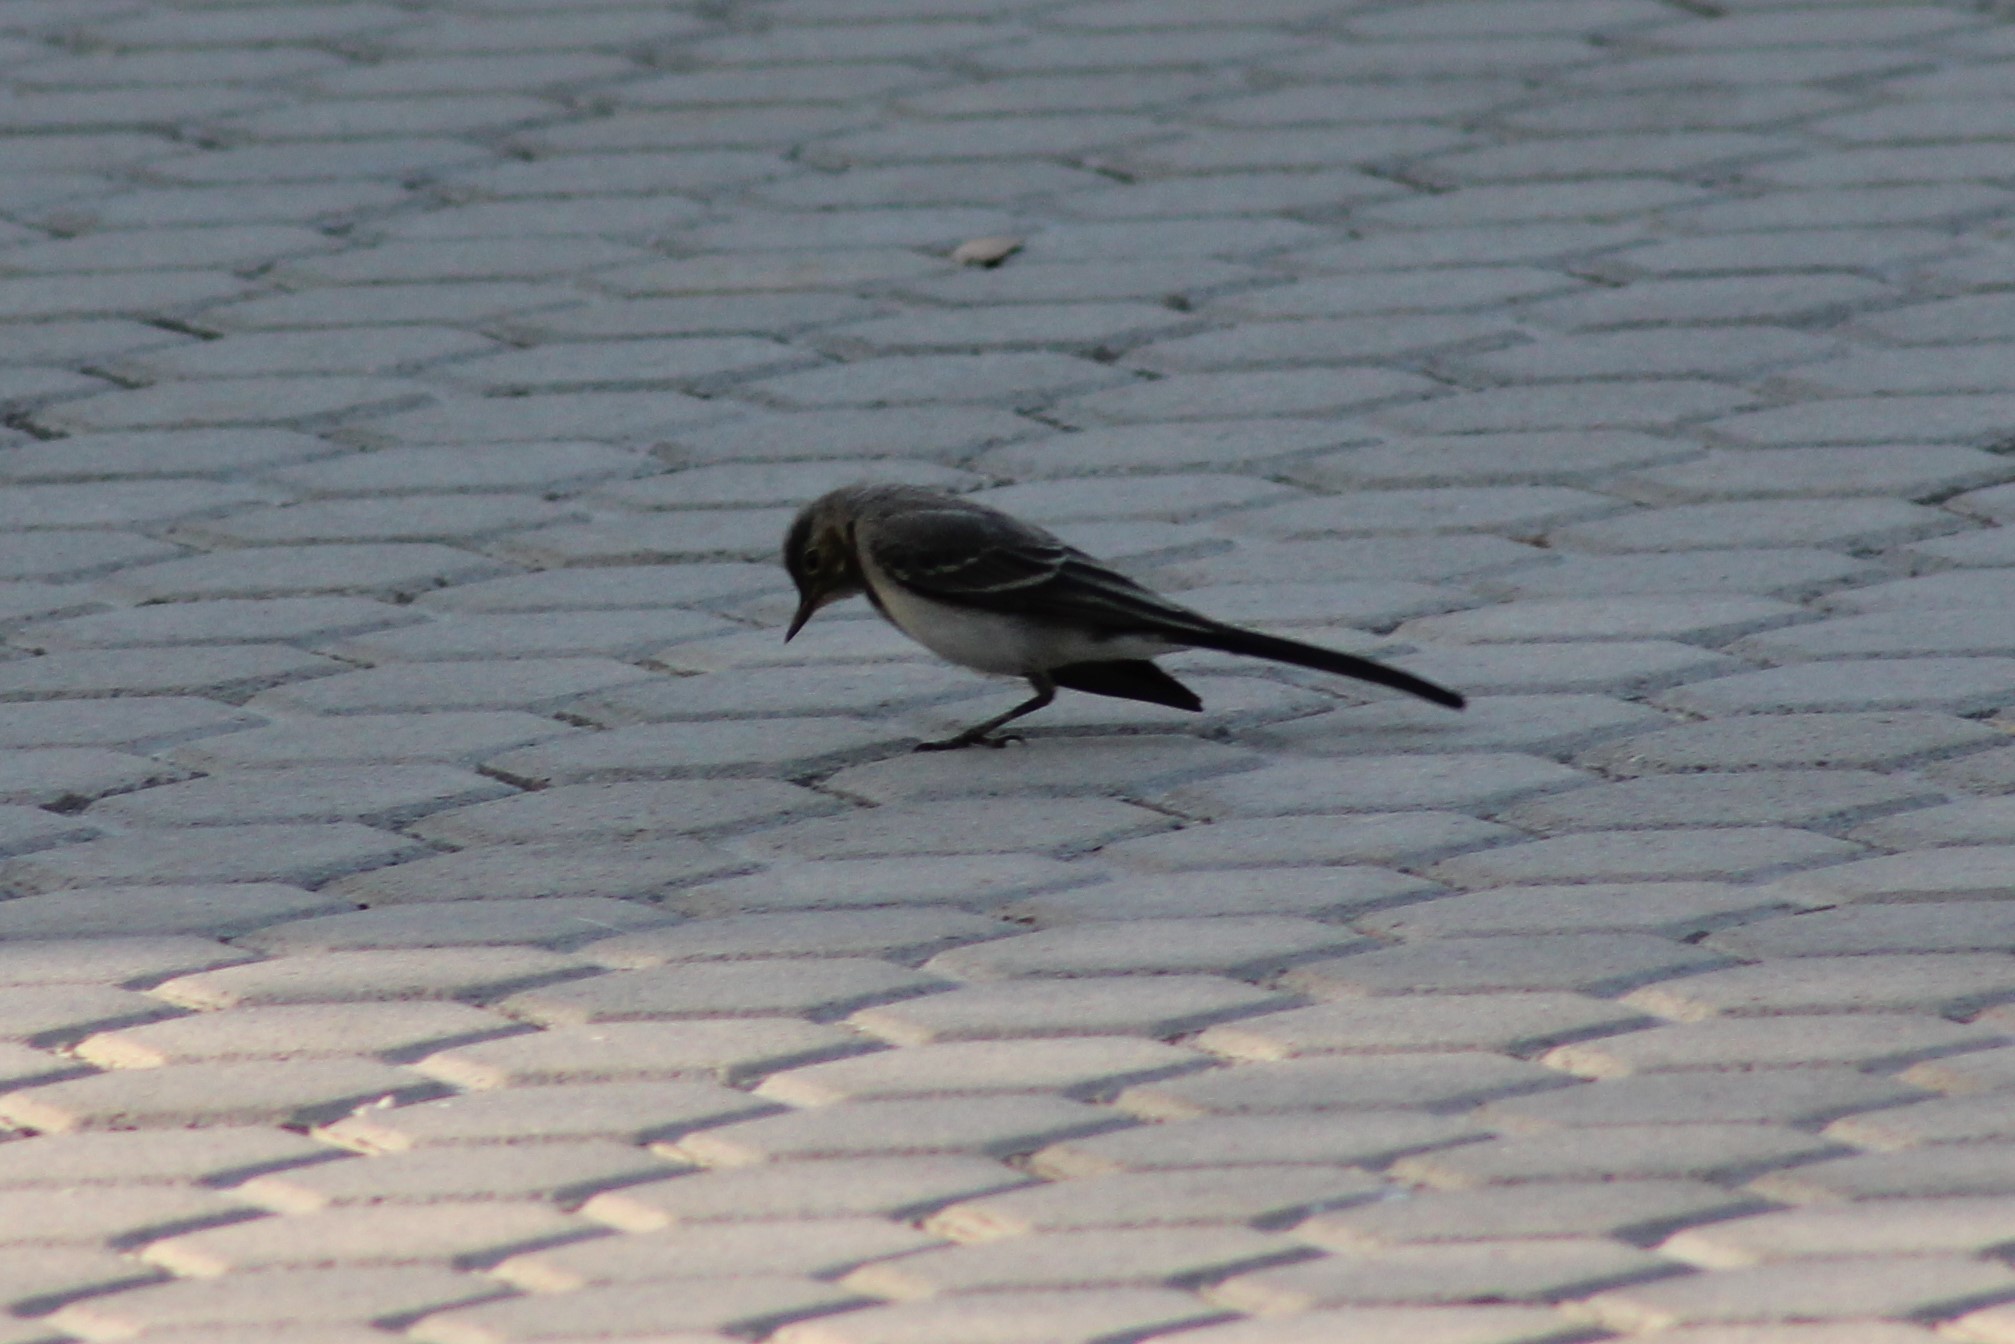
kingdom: Animalia
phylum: Chordata
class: Aves
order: Passeriformes
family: Motacillidae
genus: Motacilla
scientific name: Motacilla alba
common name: White wagtail
